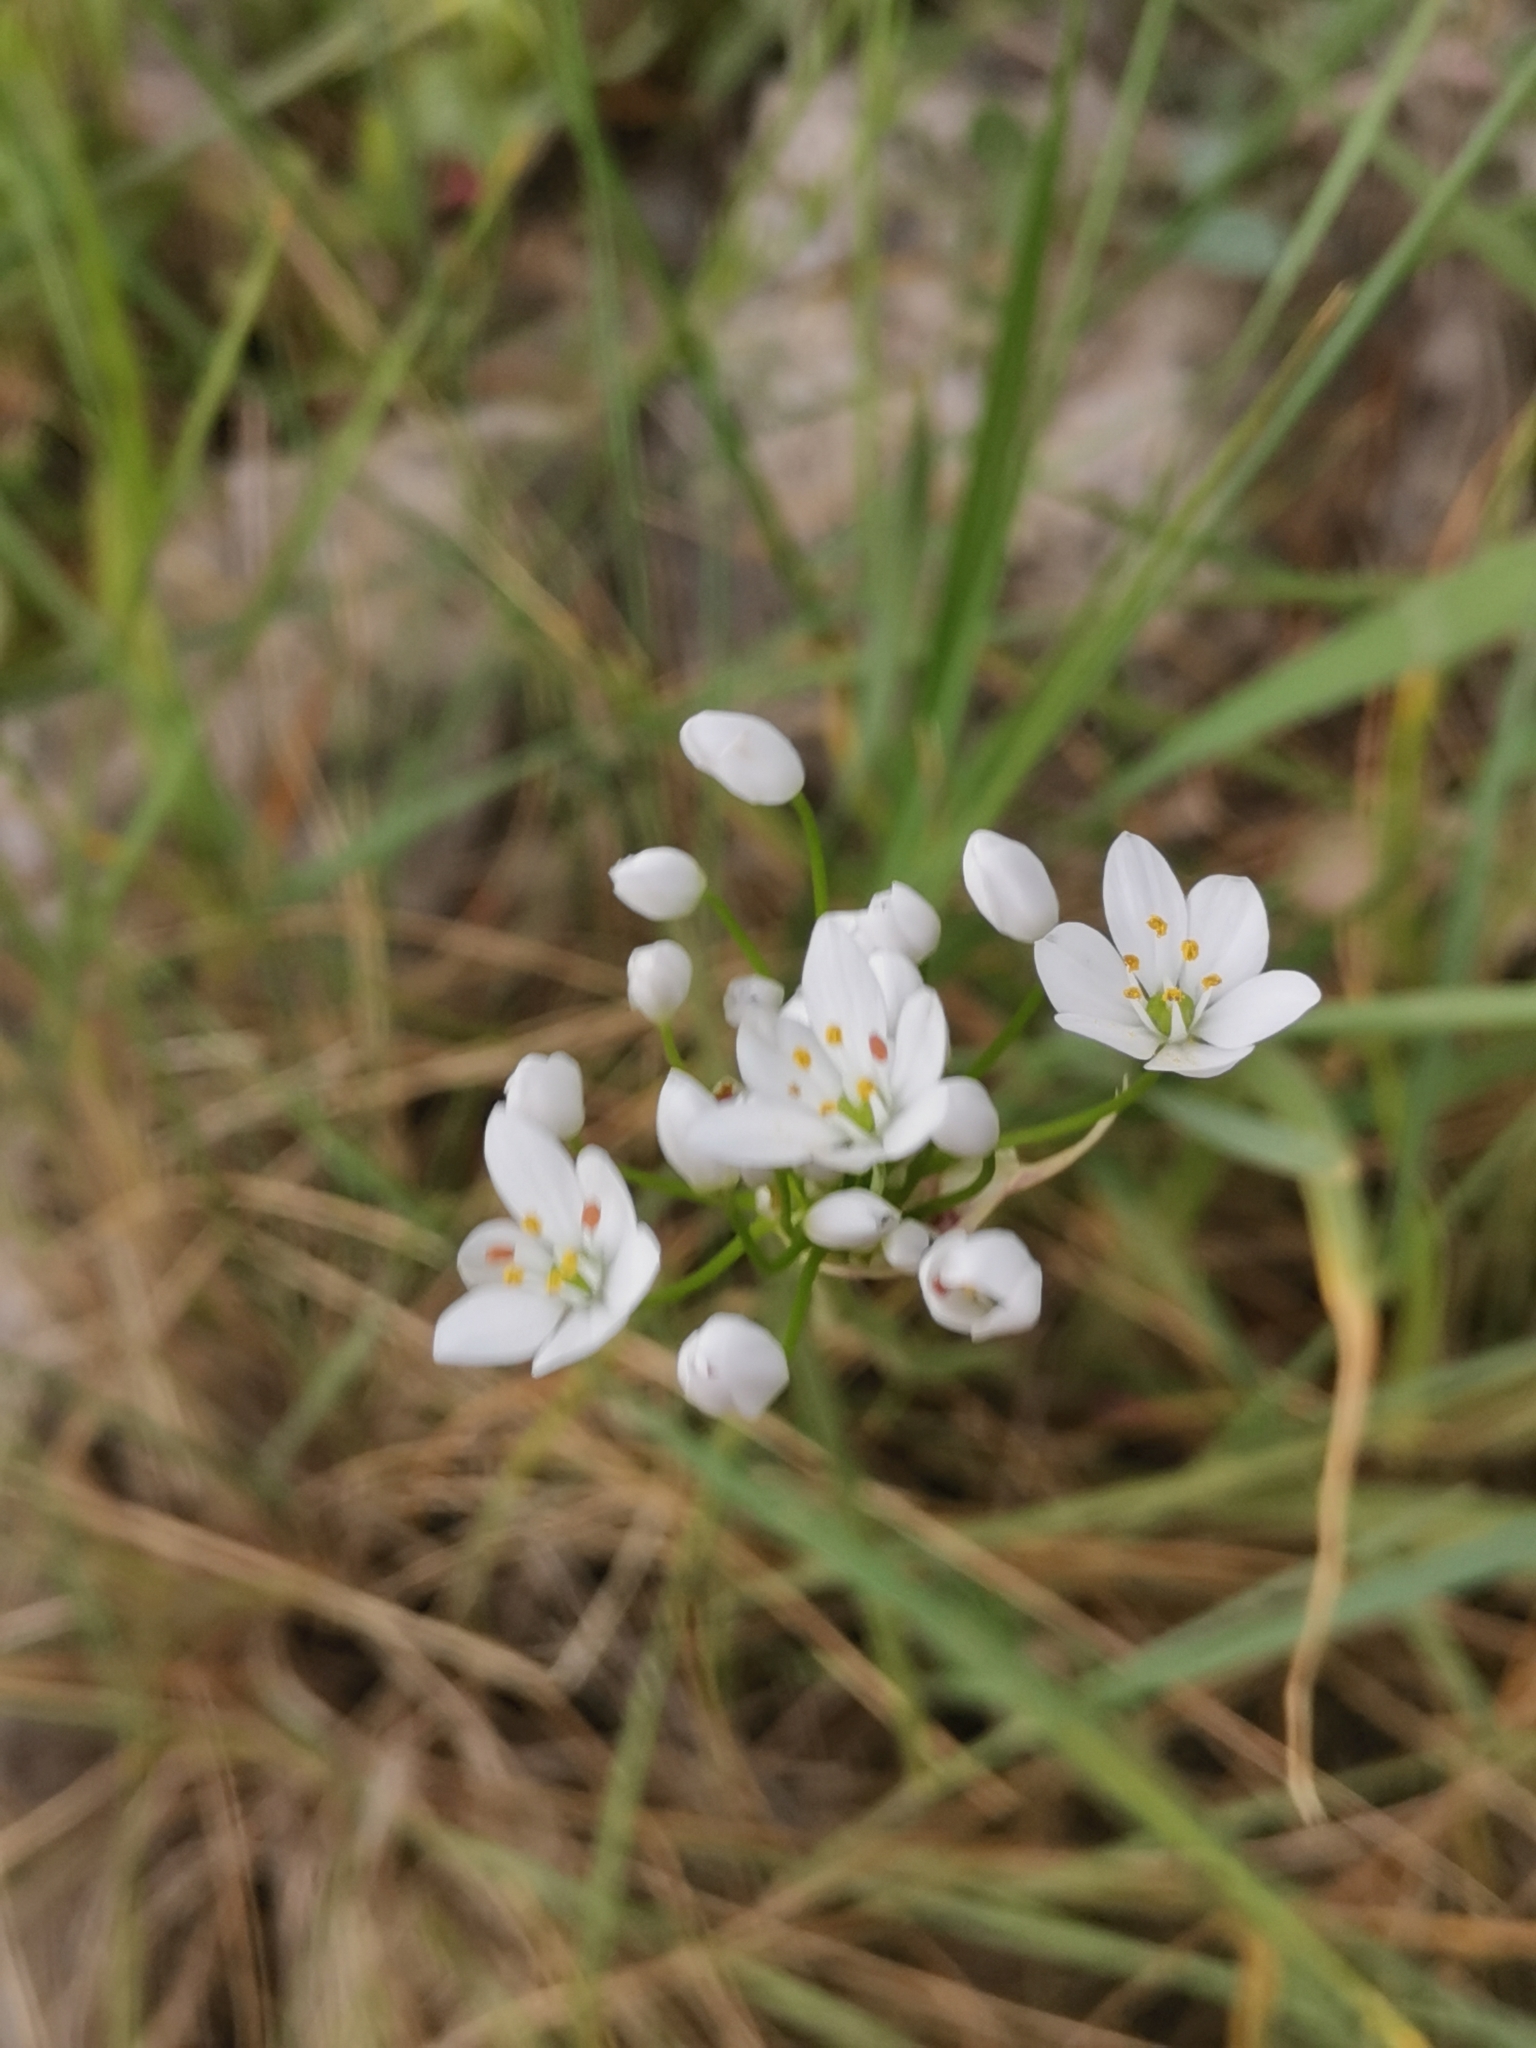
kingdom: Plantae
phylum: Tracheophyta
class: Liliopsida
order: Asparagales
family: Amaryllidaceae
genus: Allium
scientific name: Allium subhirsutum
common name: Hairy garlic
